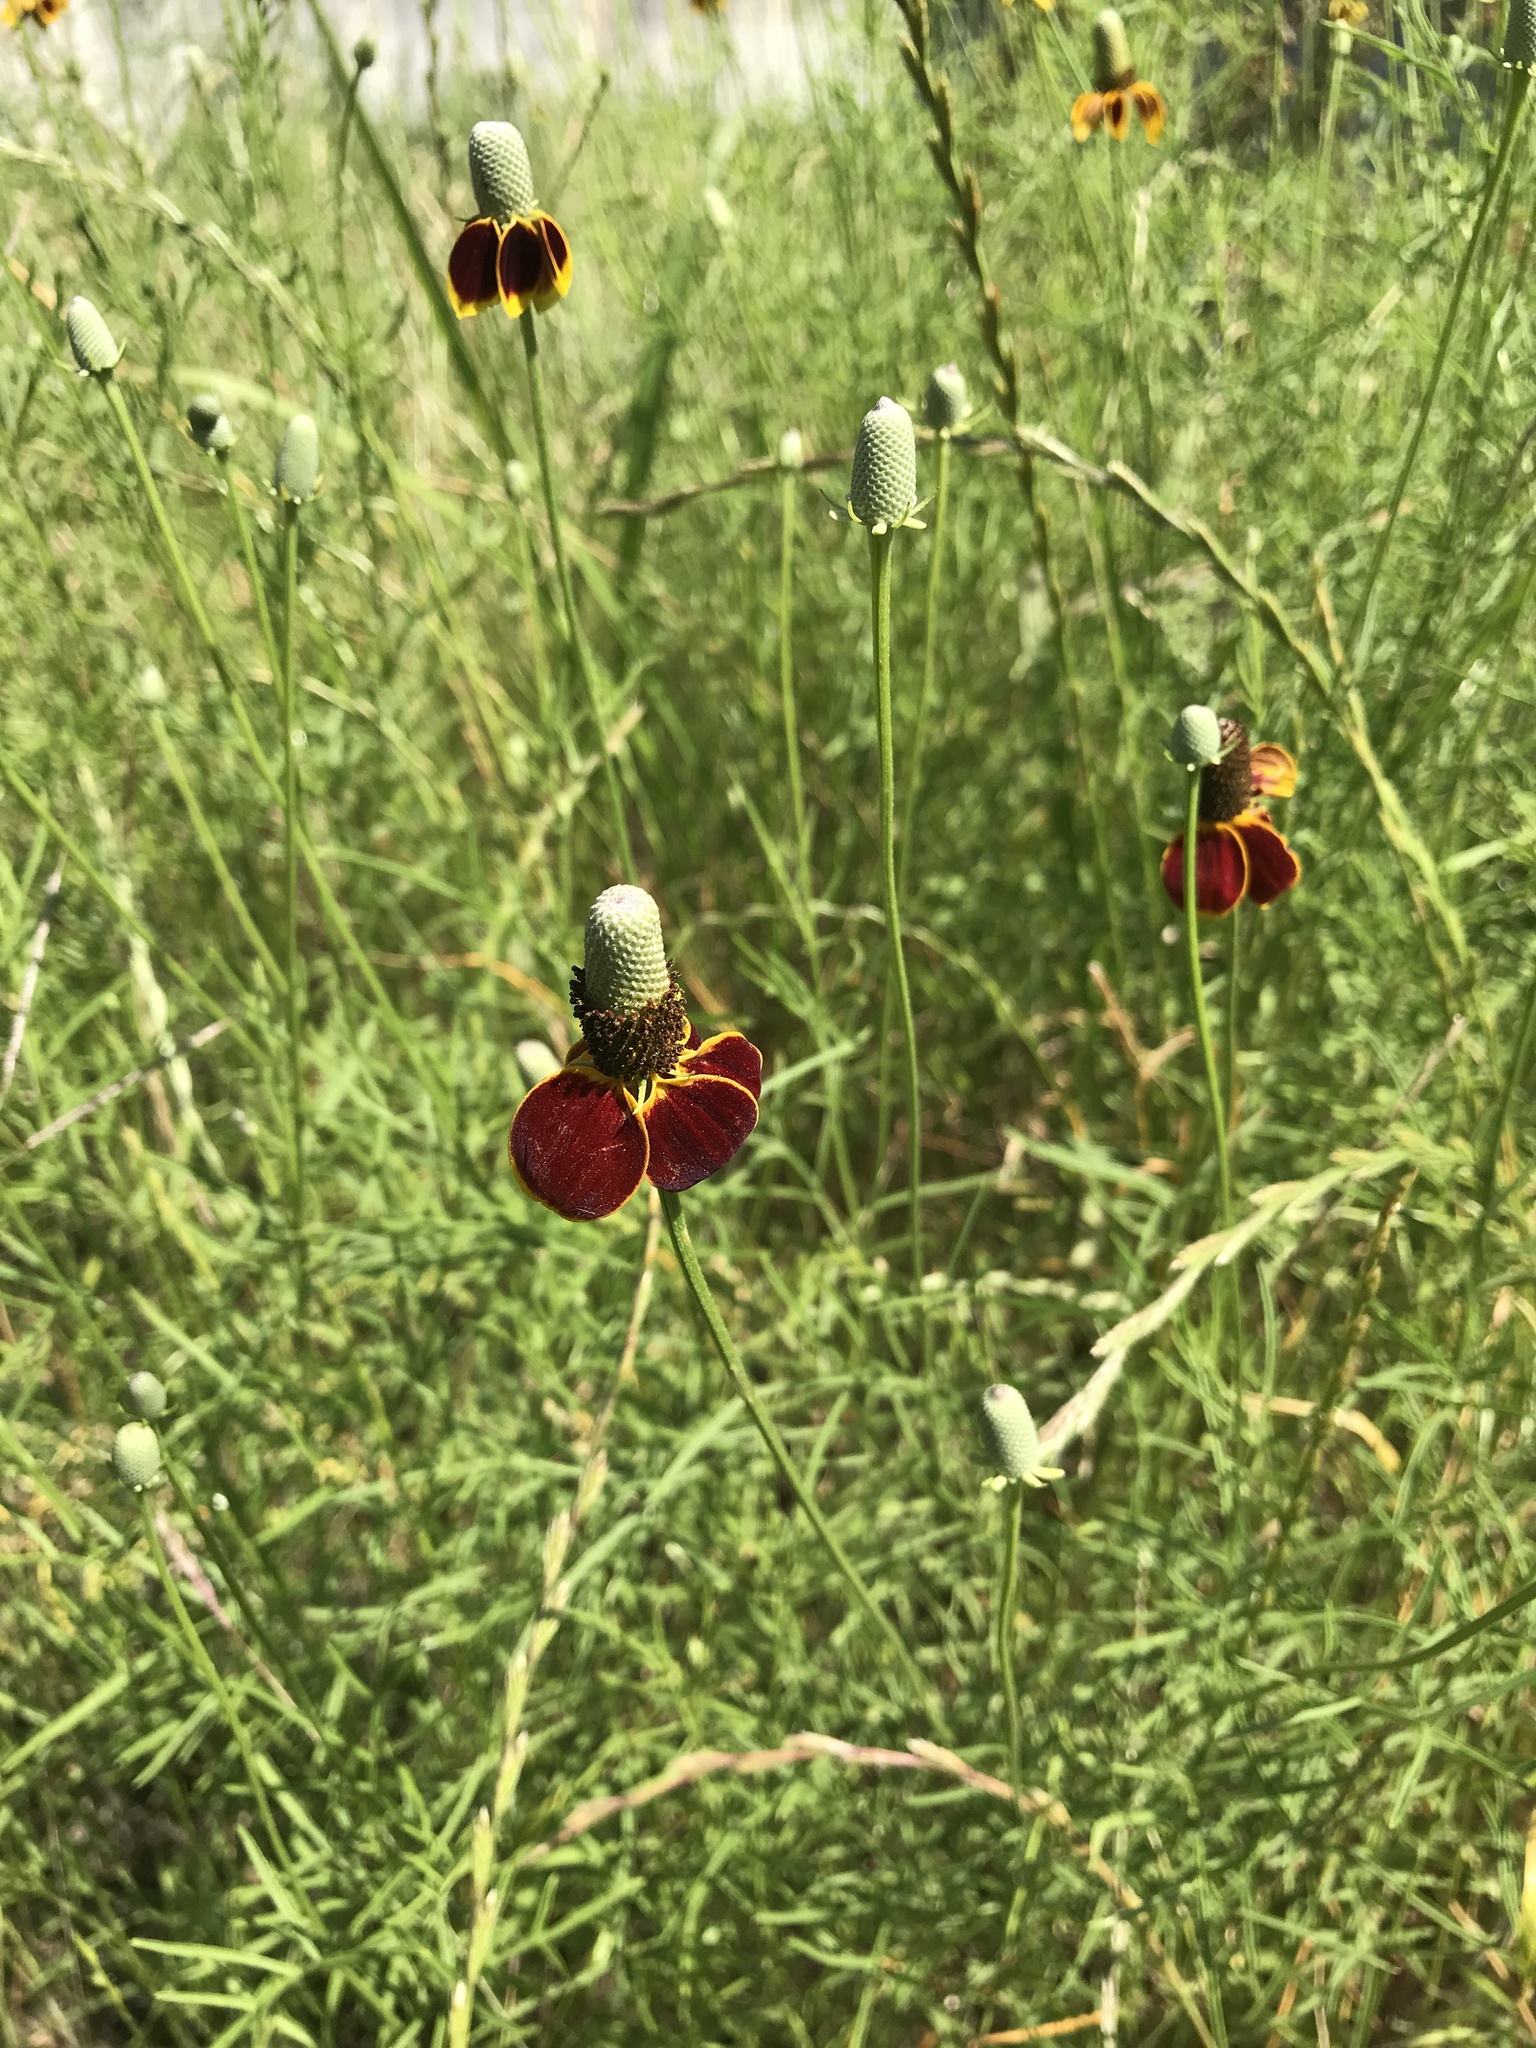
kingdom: Plantae
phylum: Tracheophyta
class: Magnoliopsida
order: Asterales
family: Asteraceae
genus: Ratibida
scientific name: Ratibida columnifera
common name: Prairie coneflower
